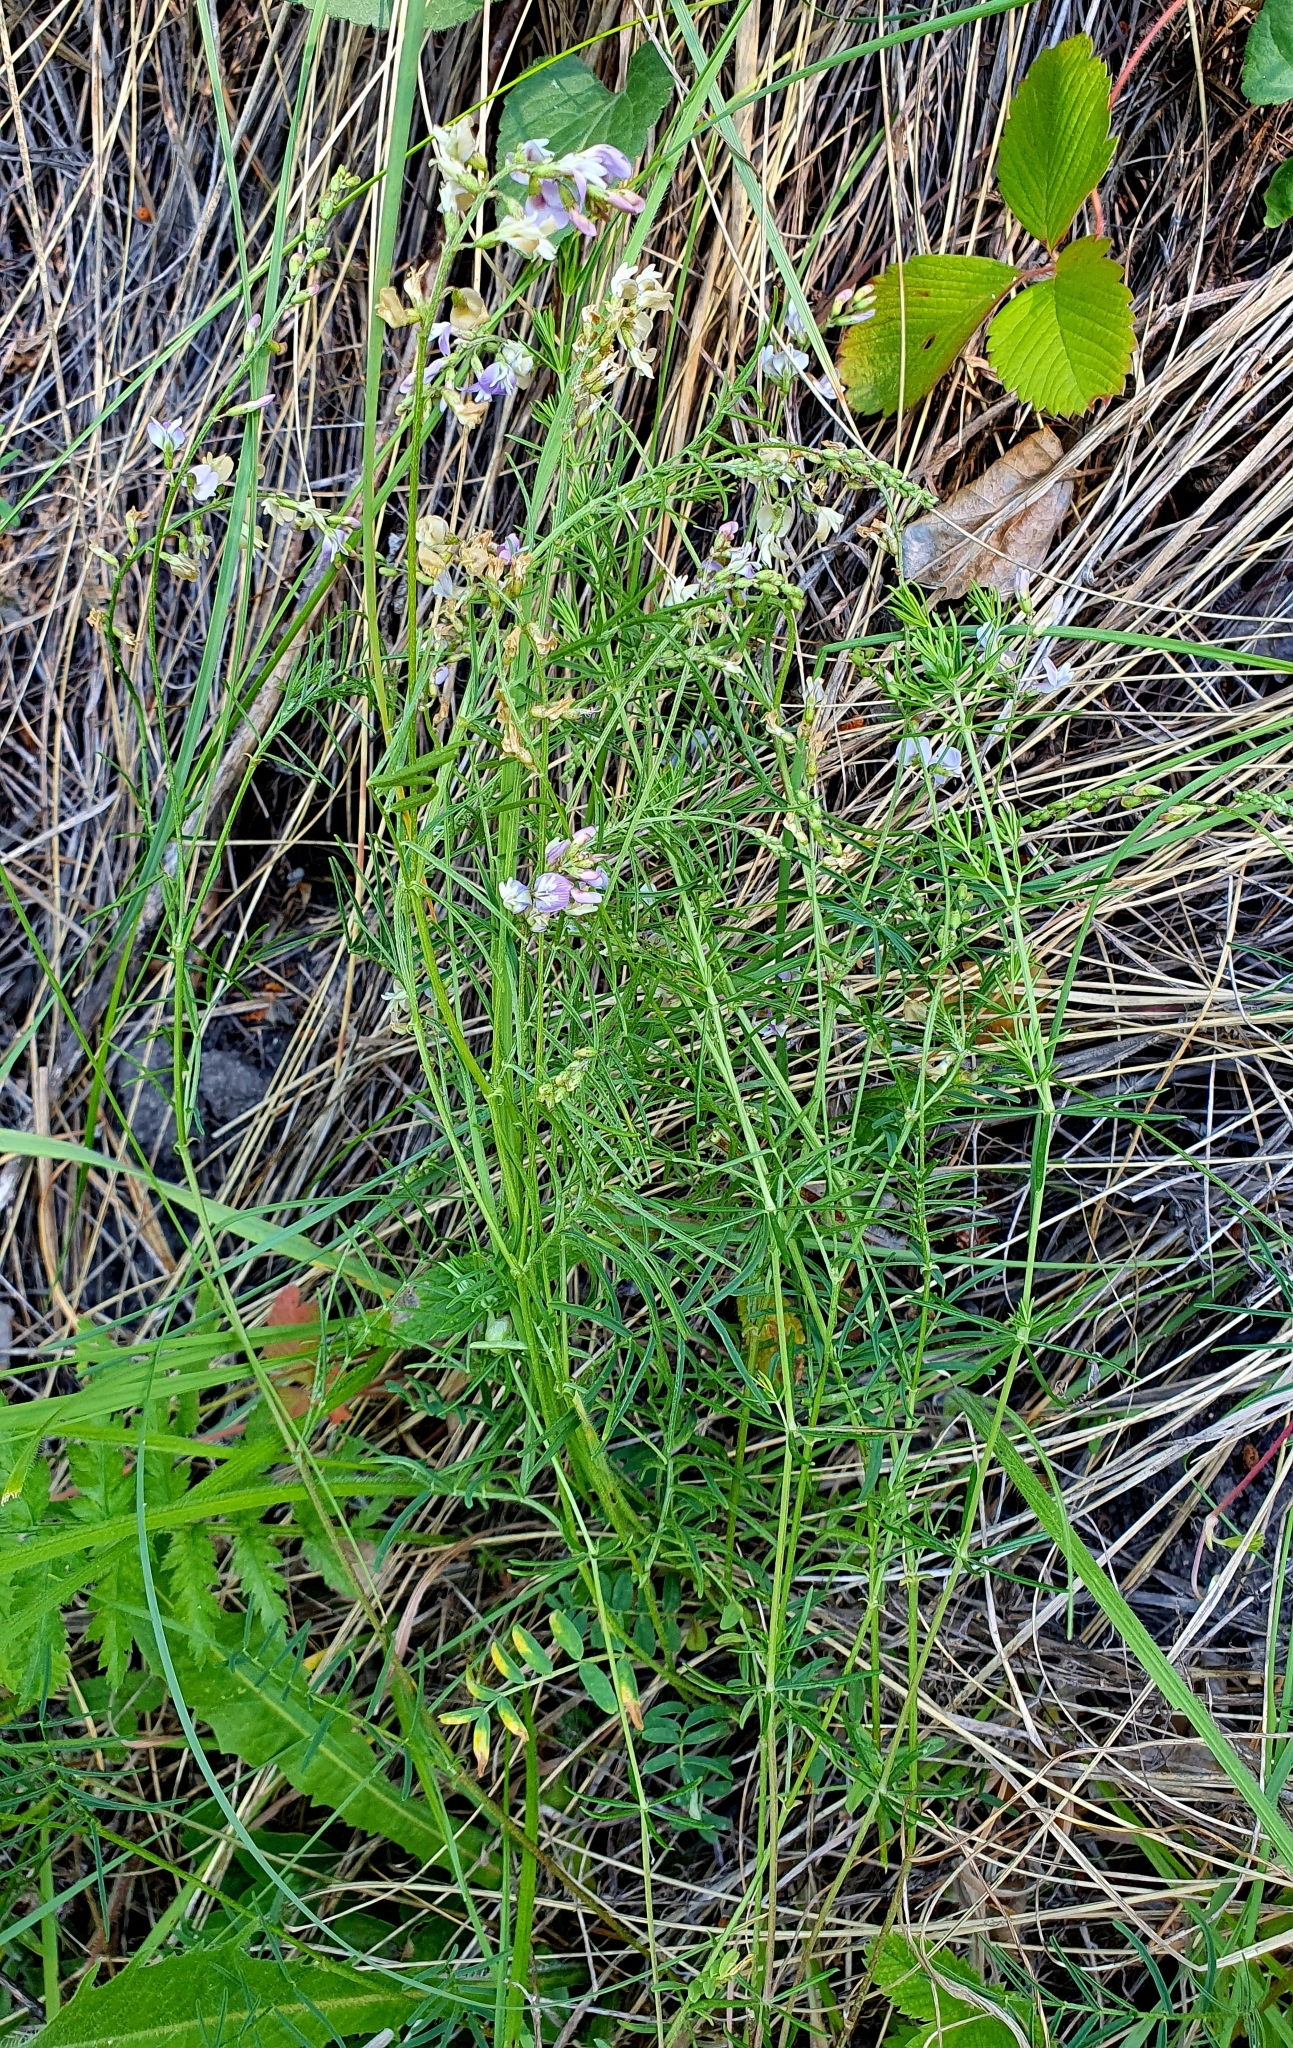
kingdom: Plantae
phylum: Tracheophyta
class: Magnoliopsida
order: Fabales
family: Fabaceae
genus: Astragalus
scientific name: Astragalus austriacus
